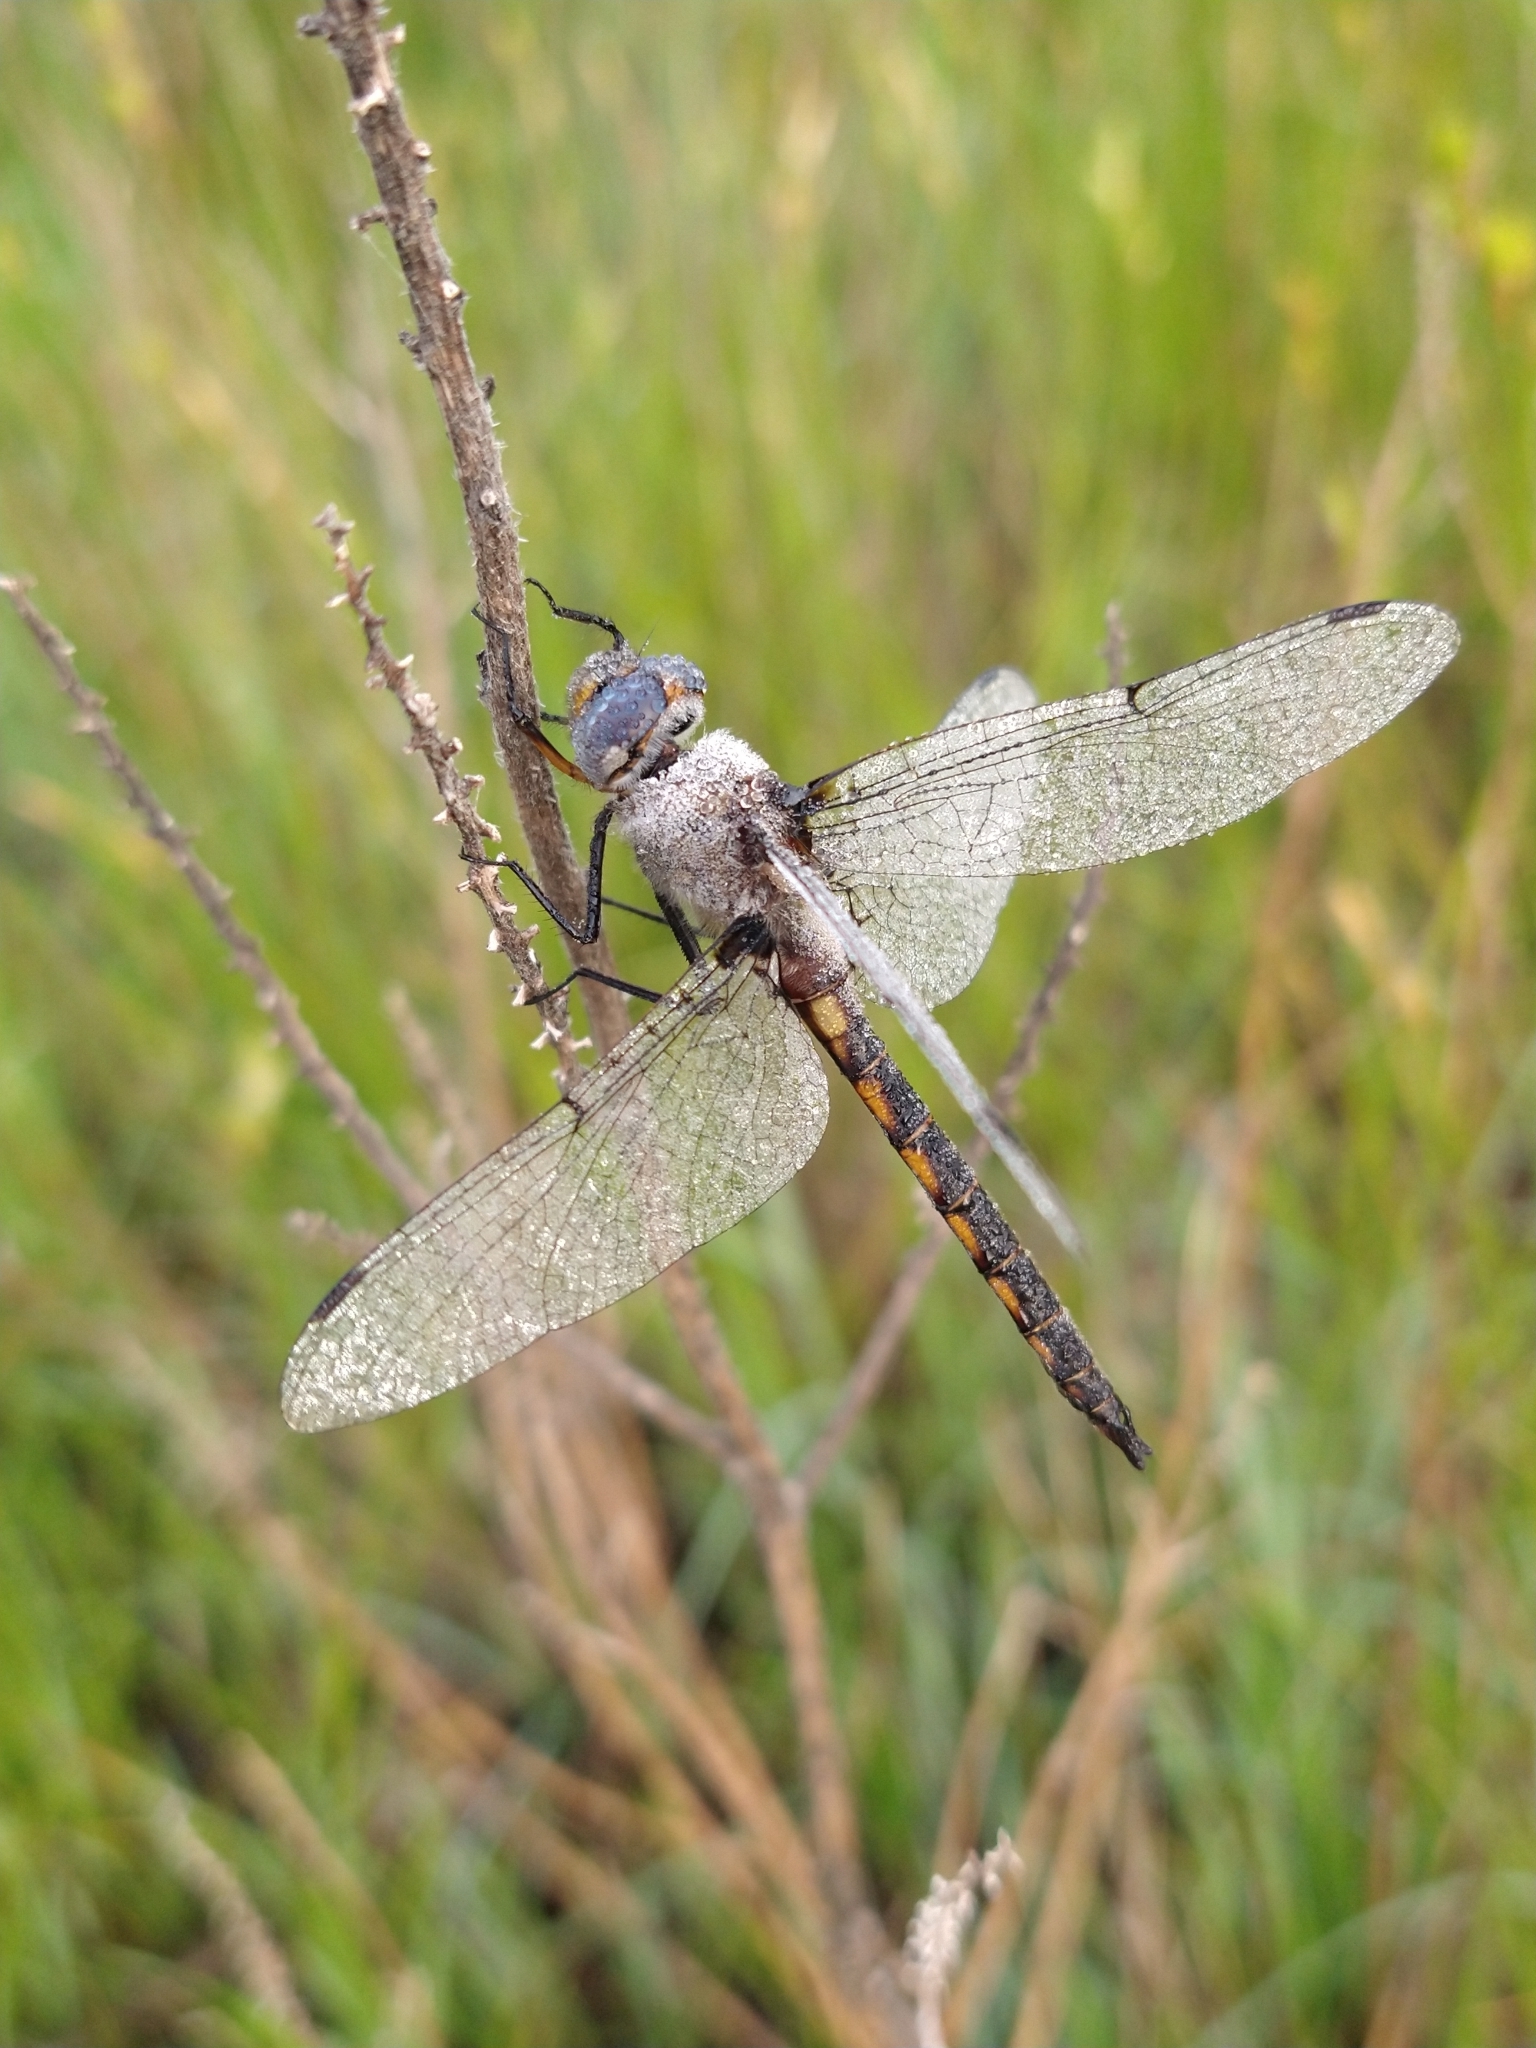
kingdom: Animalia
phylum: Arthropoda
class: Insecta
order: Odonata
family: Corduliidae
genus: Epitheca
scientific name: Epitheca petechialis
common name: Dot-winged baskettail
